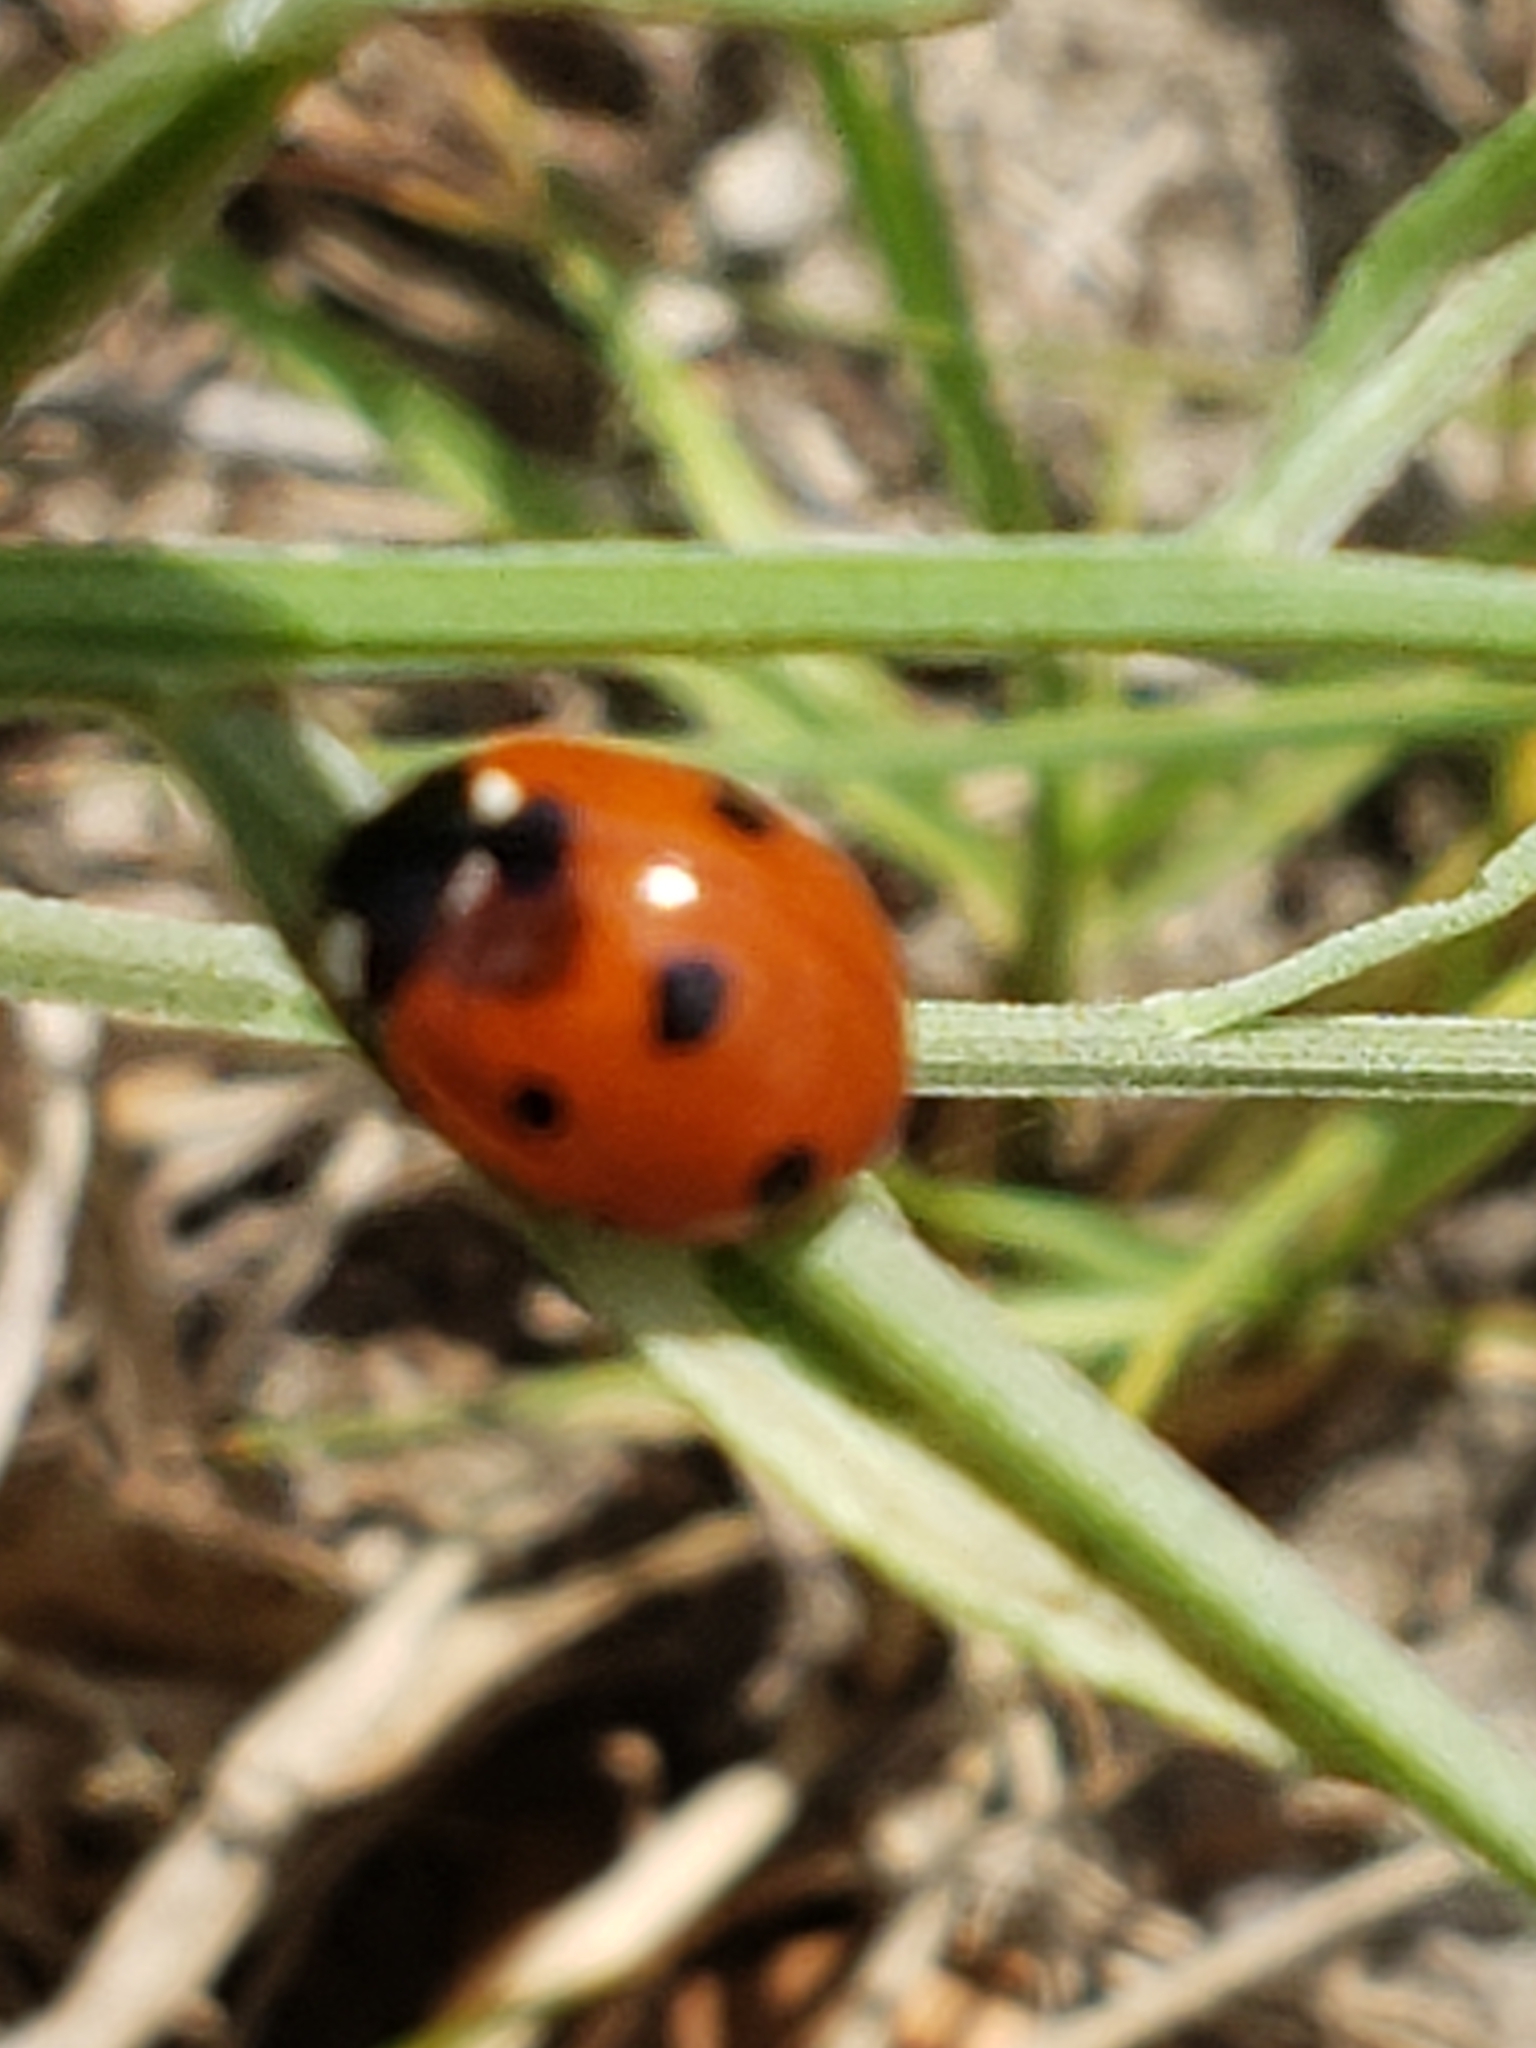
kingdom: Animalia
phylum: Arthropoda
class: Insecta
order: Coleoptera
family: Coccinellidae
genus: Coccinella
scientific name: Coccinella septempunctata
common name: Sevenspotted lady beetle
